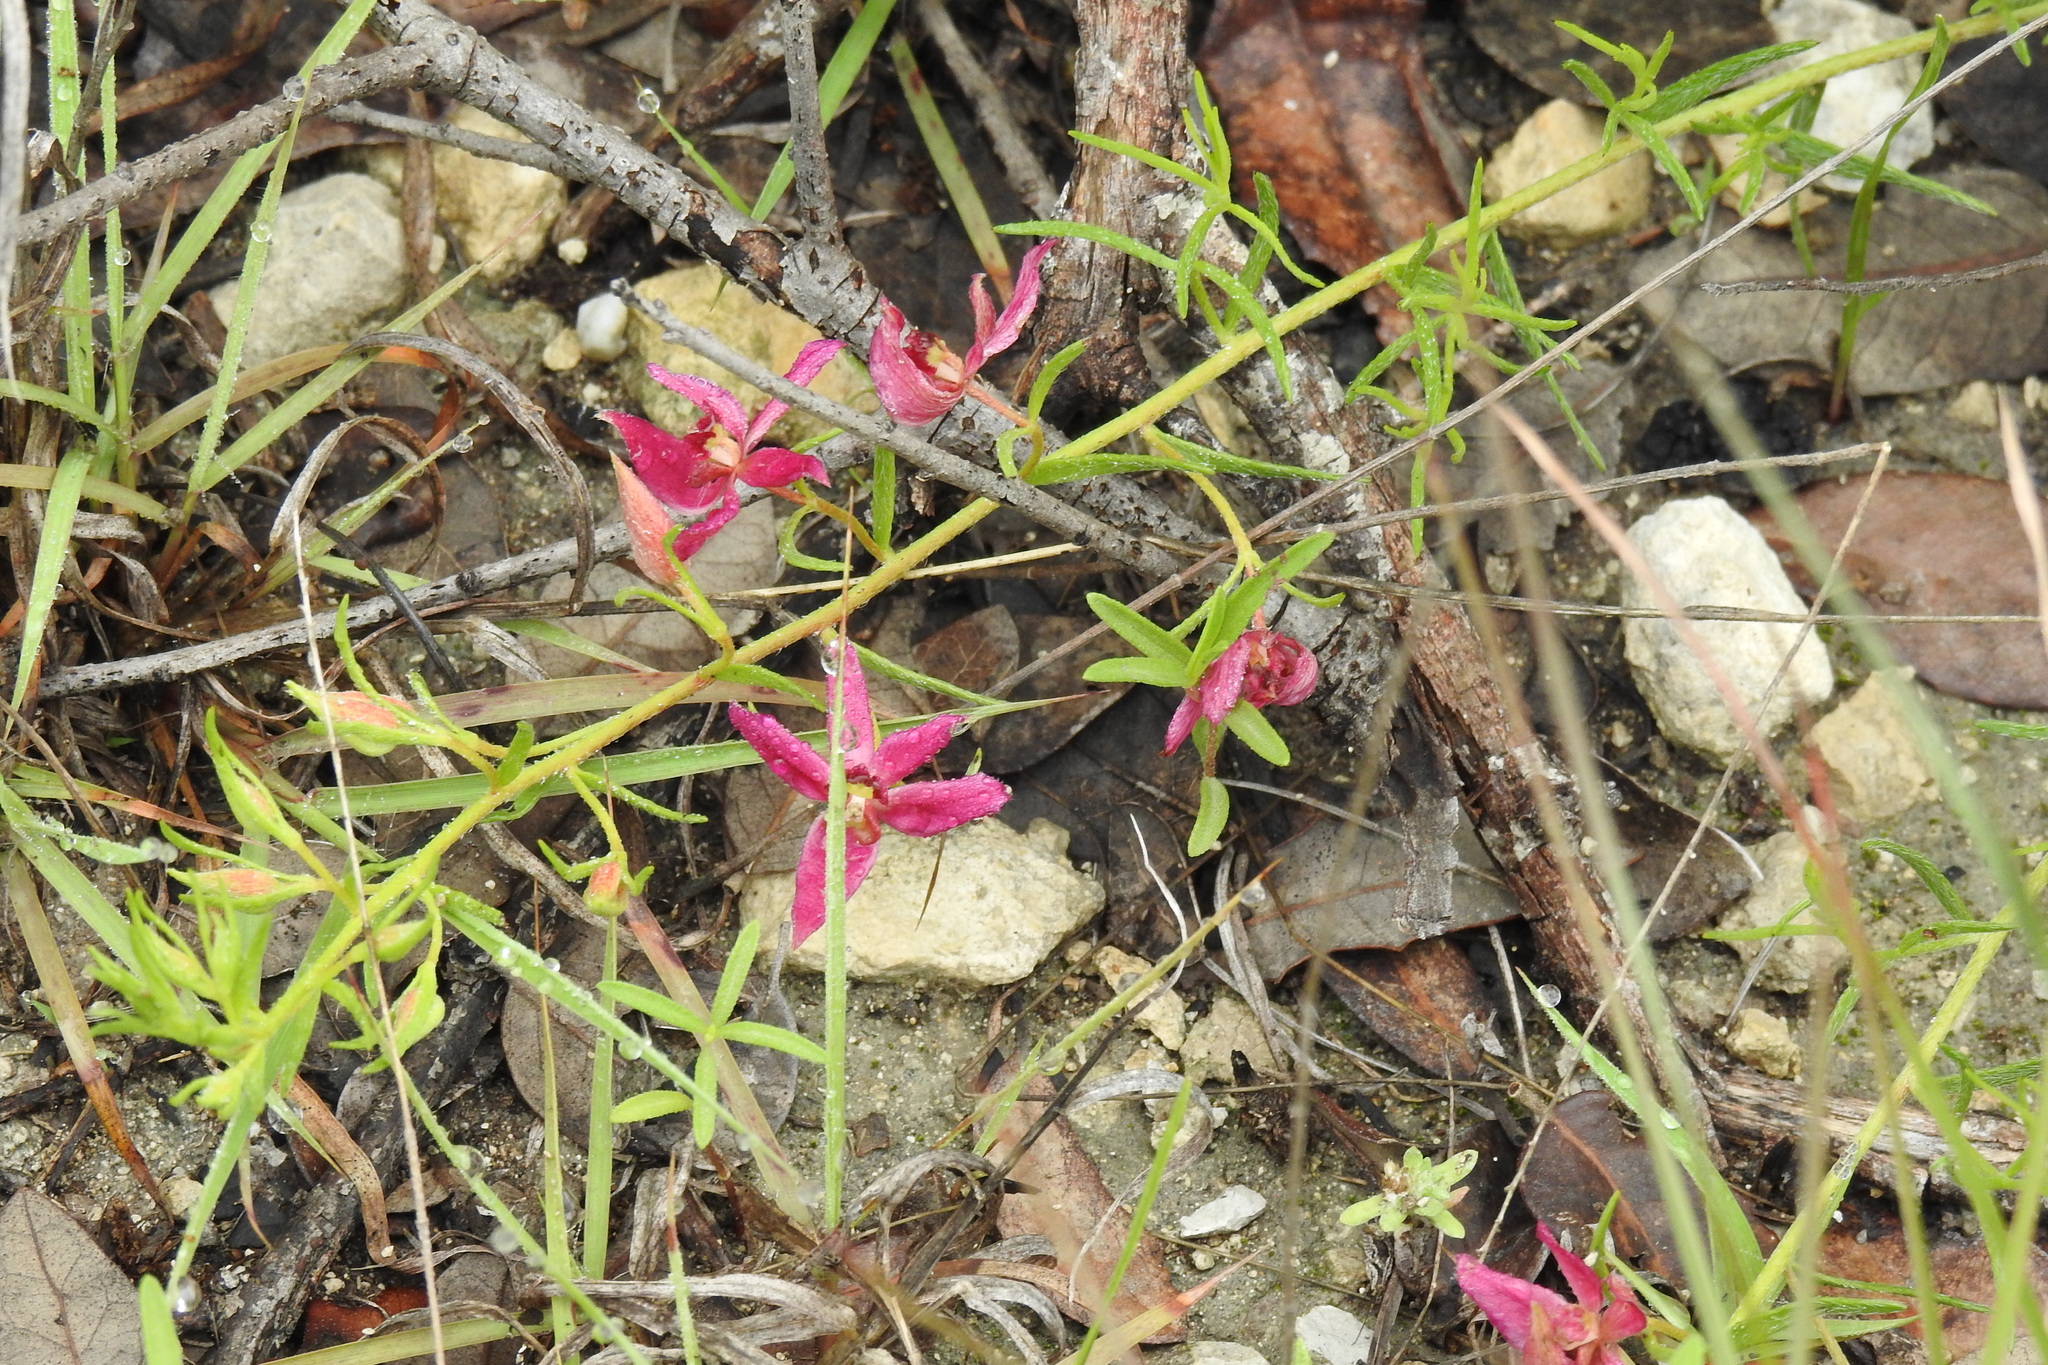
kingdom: Plantae
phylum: Tracheophyta
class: Magnoliopsida
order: Zygophyllales
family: Krameriaceae
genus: Krameria
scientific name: Krameria lanceolata
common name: Ratany
